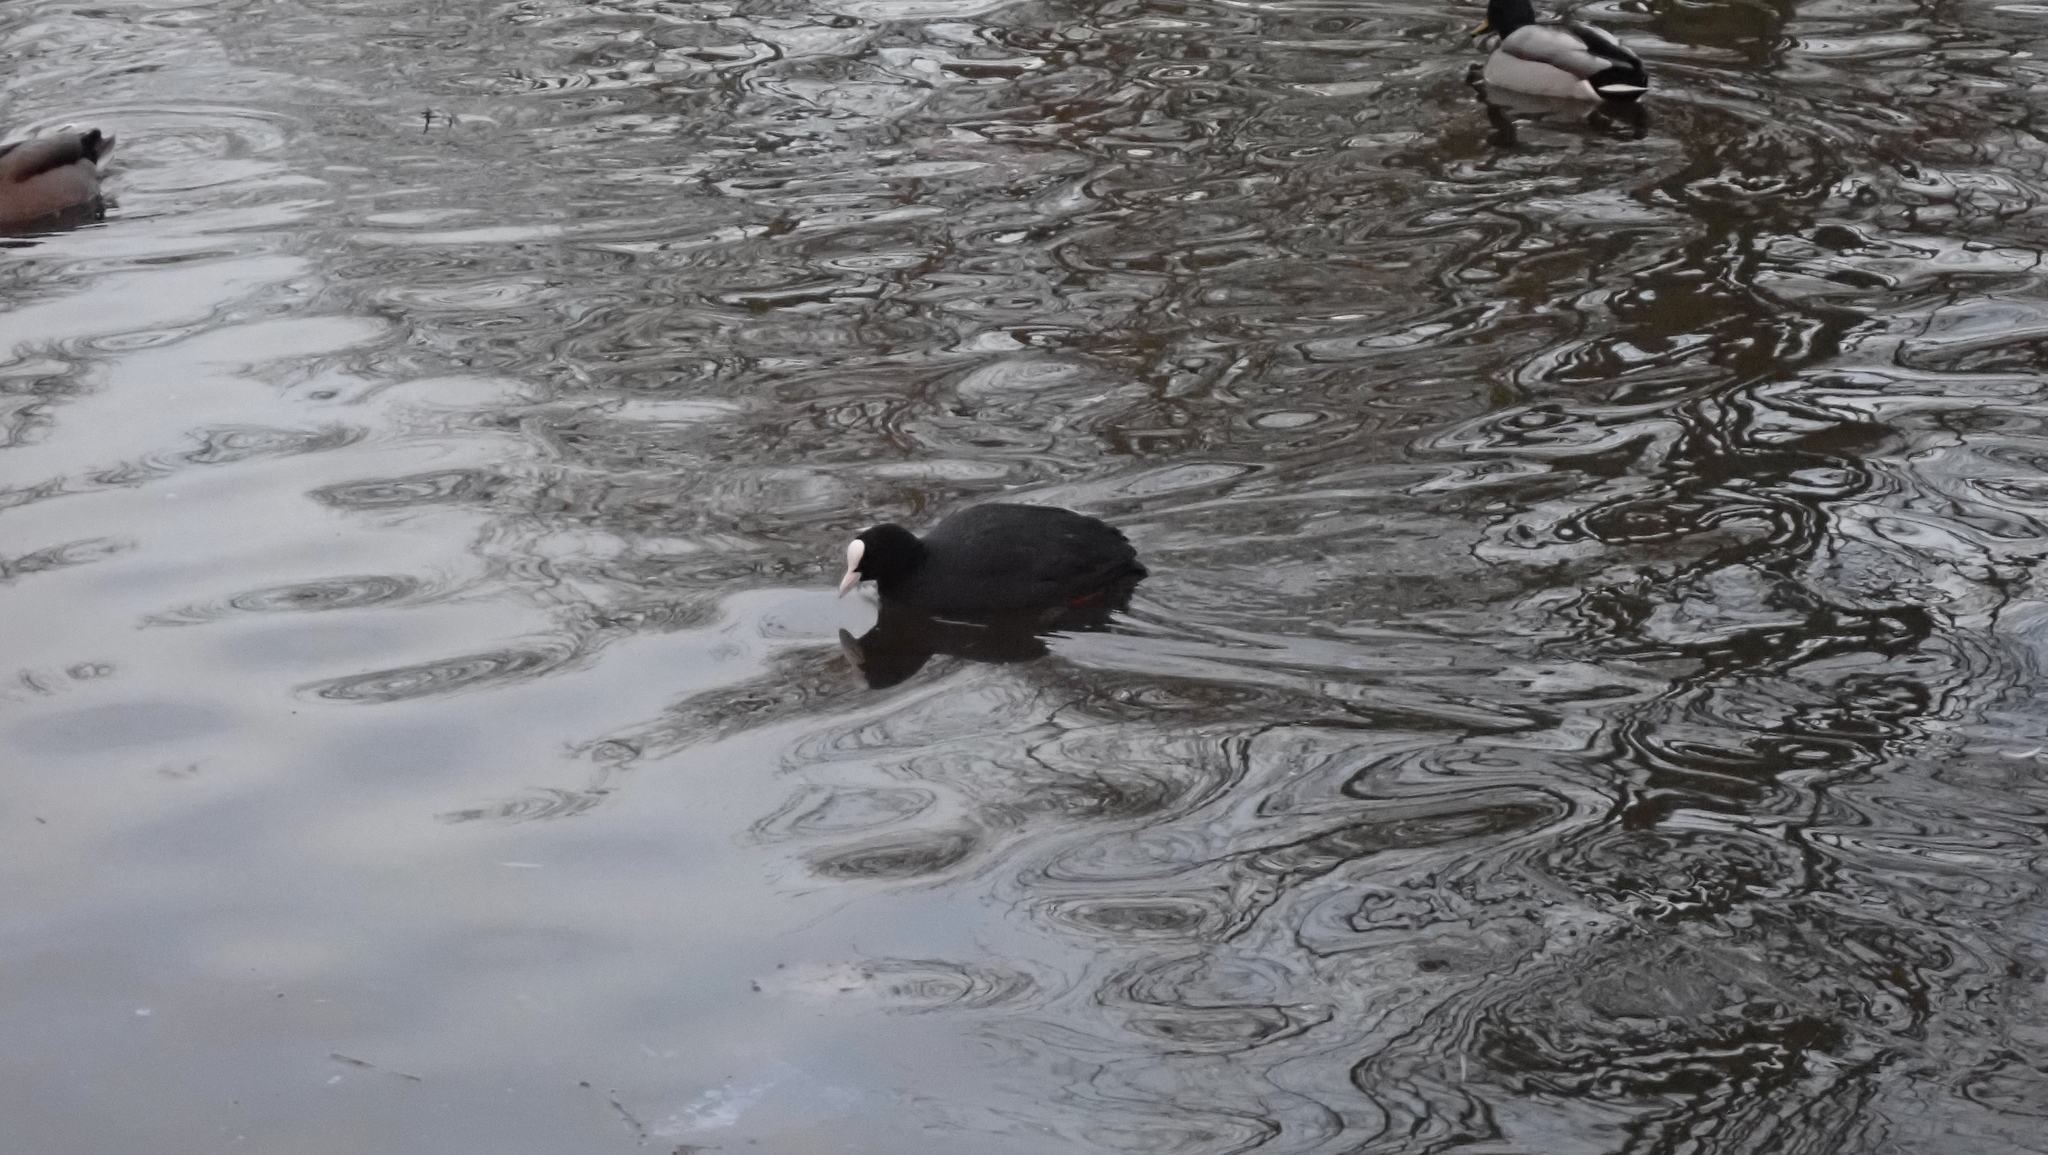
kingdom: Animalia
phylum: Chordata
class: Aves
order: Gruiformes
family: Rallidae
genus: Fulica
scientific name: Fulica atra
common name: Eurasian coot
